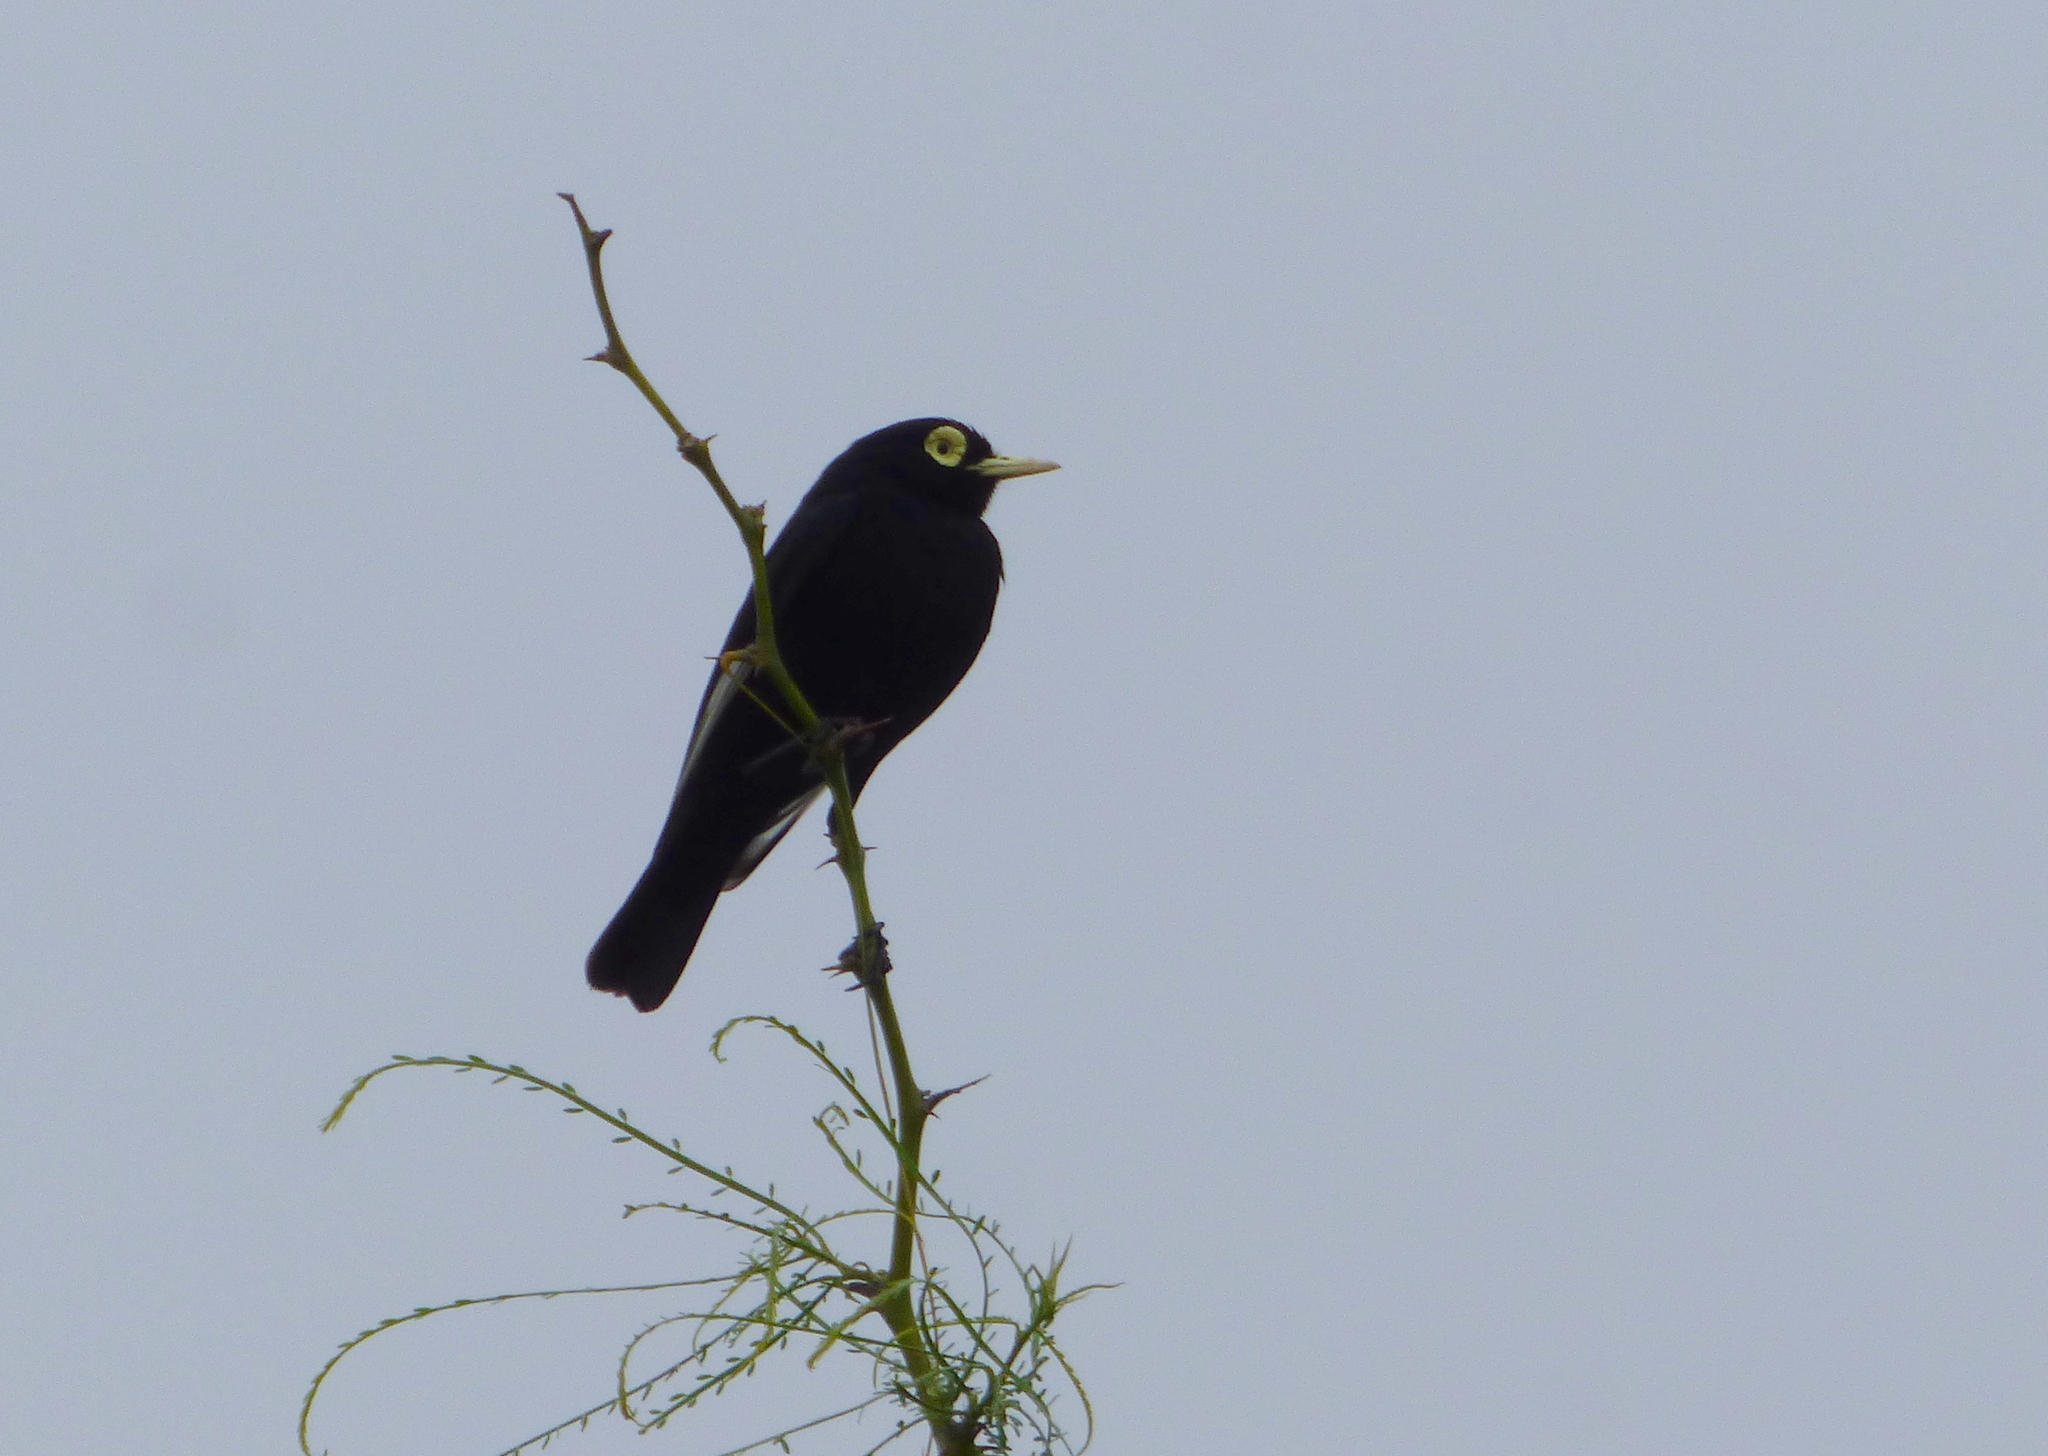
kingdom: Animalia
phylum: Chordata
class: Aves
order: Passeriformes
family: Tyrannidae
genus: Hymenops
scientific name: Hymenops perspicillatus
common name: Spectacled tyrant
